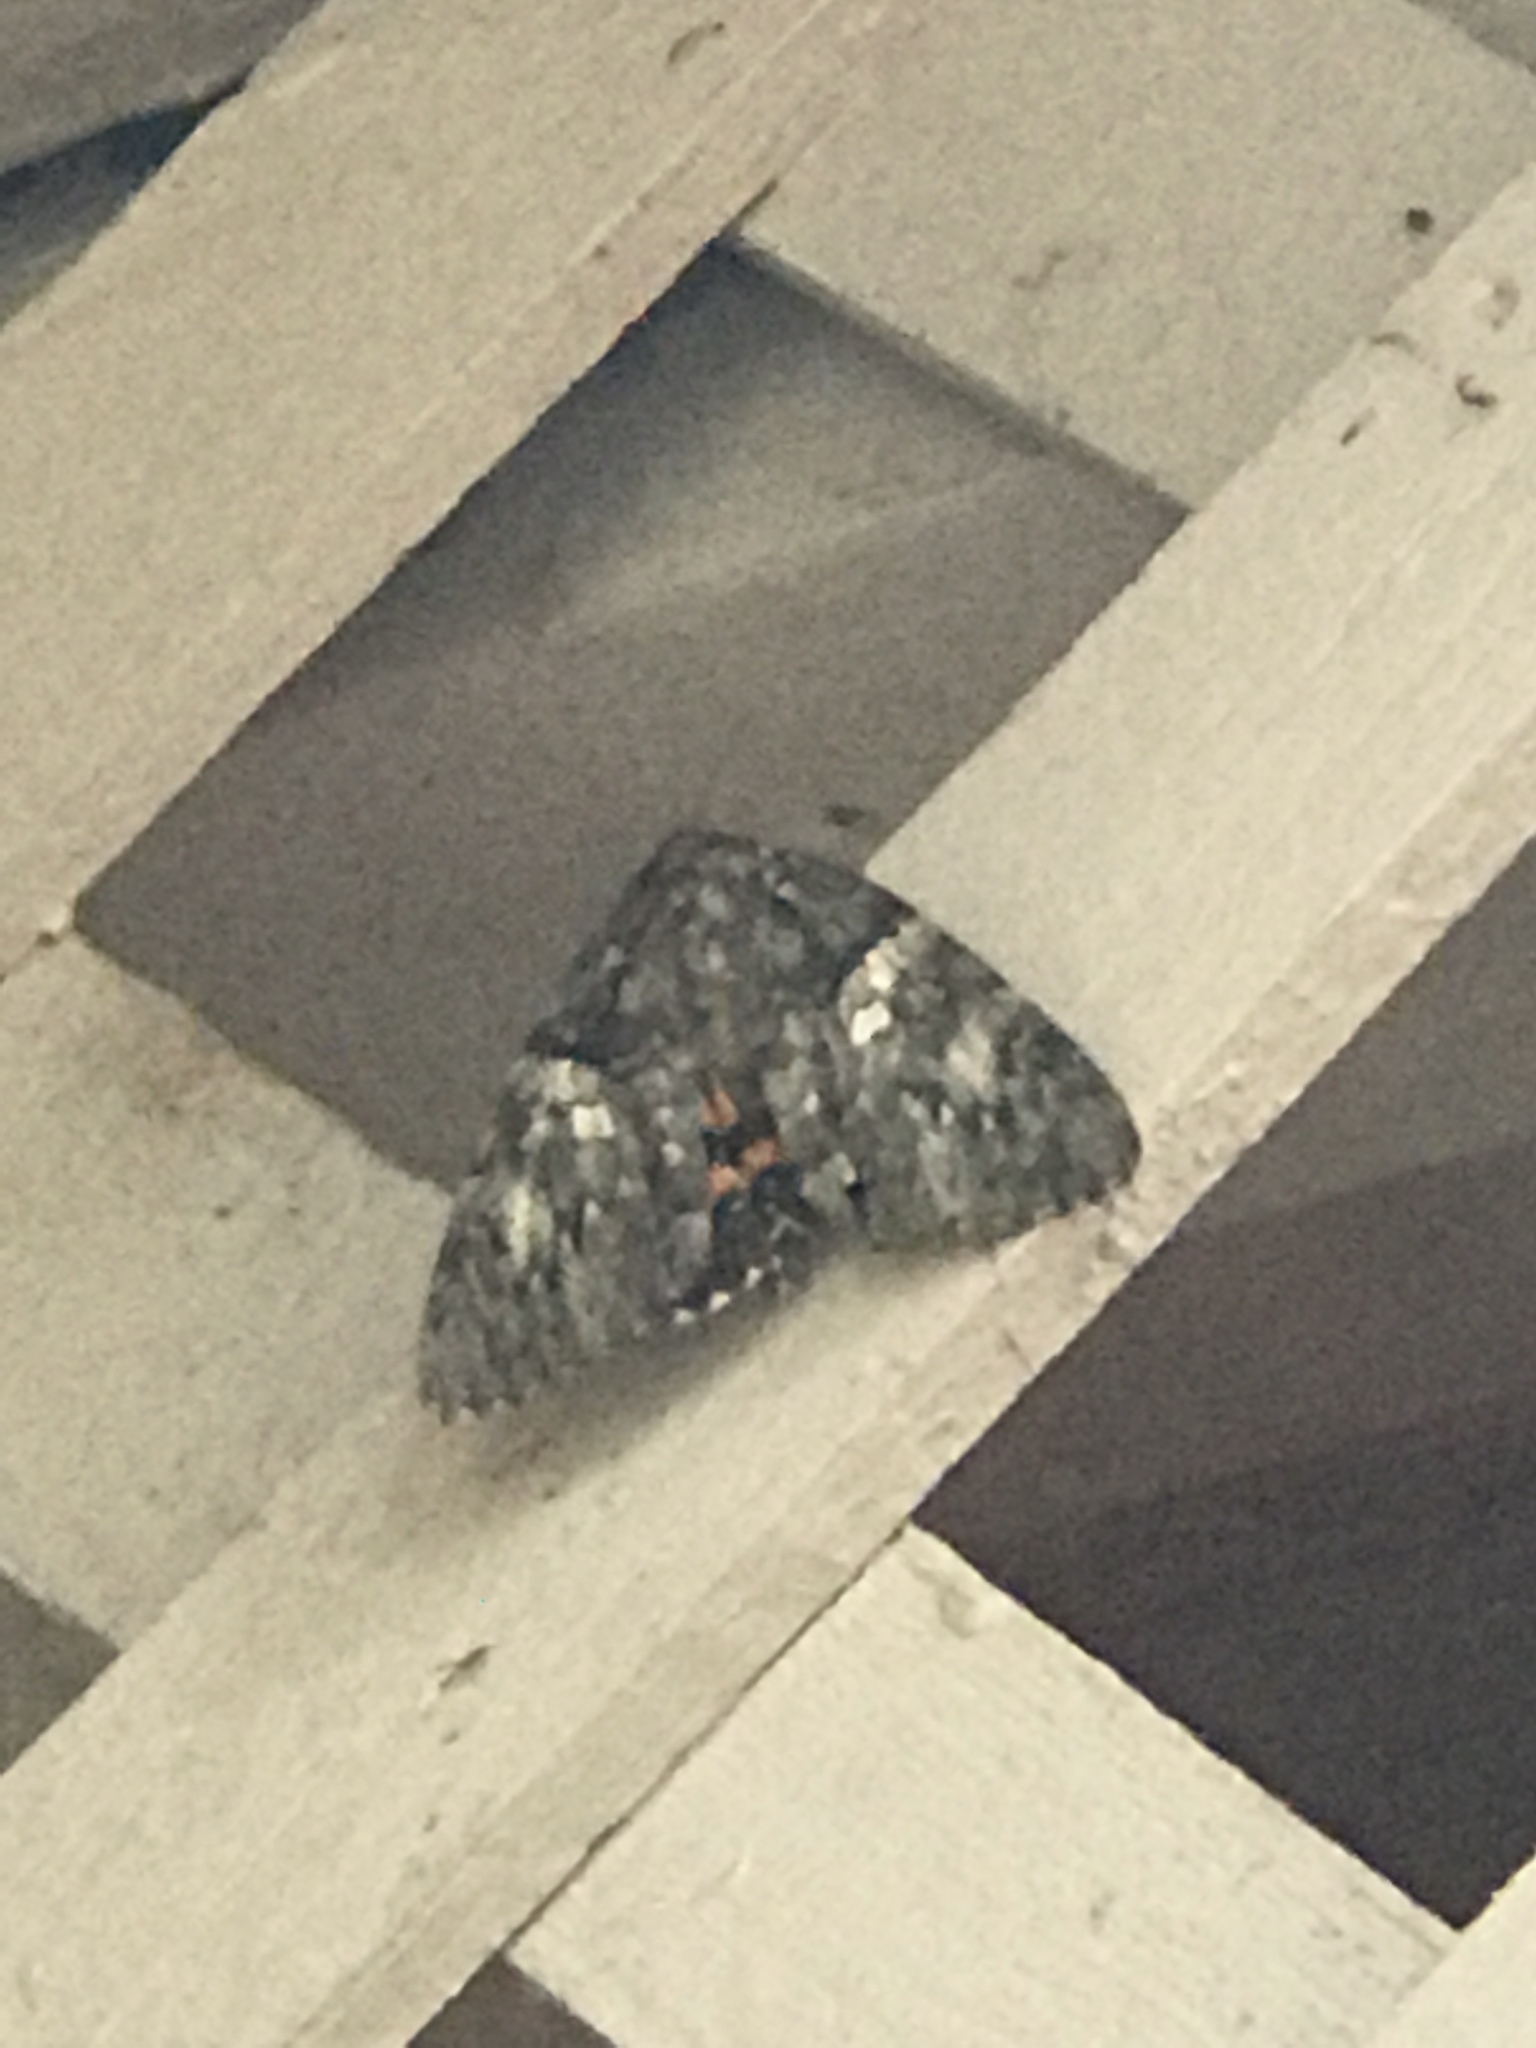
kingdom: Animalia
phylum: Arthropoda
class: Insecta
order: Lepidoptera
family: Erebidae
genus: Catocala
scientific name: Catocala ilia
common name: Ilia underwing
